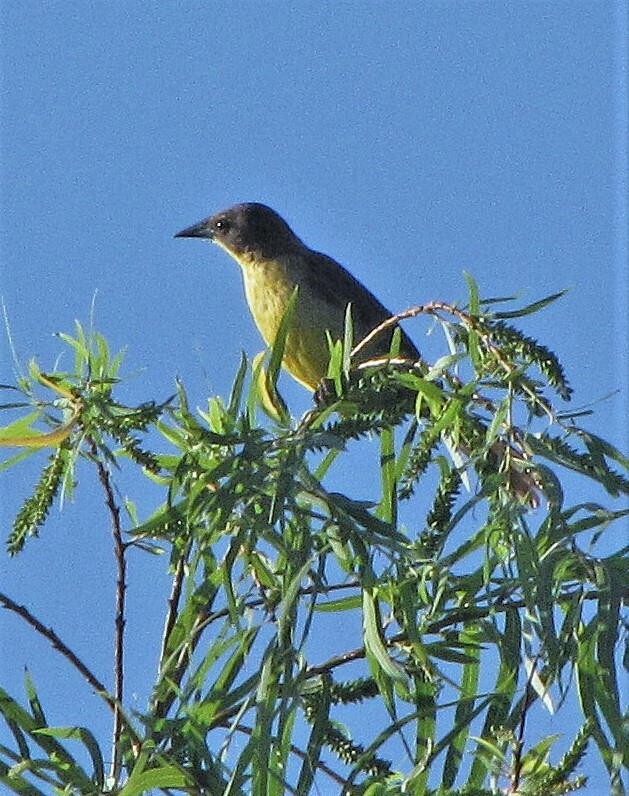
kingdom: Animalia
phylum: Chordata
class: Aves
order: Passeriformes
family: Icteridae
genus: Agelasticus
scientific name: Agelasticus cyanopus
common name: Unicolored blackbird
